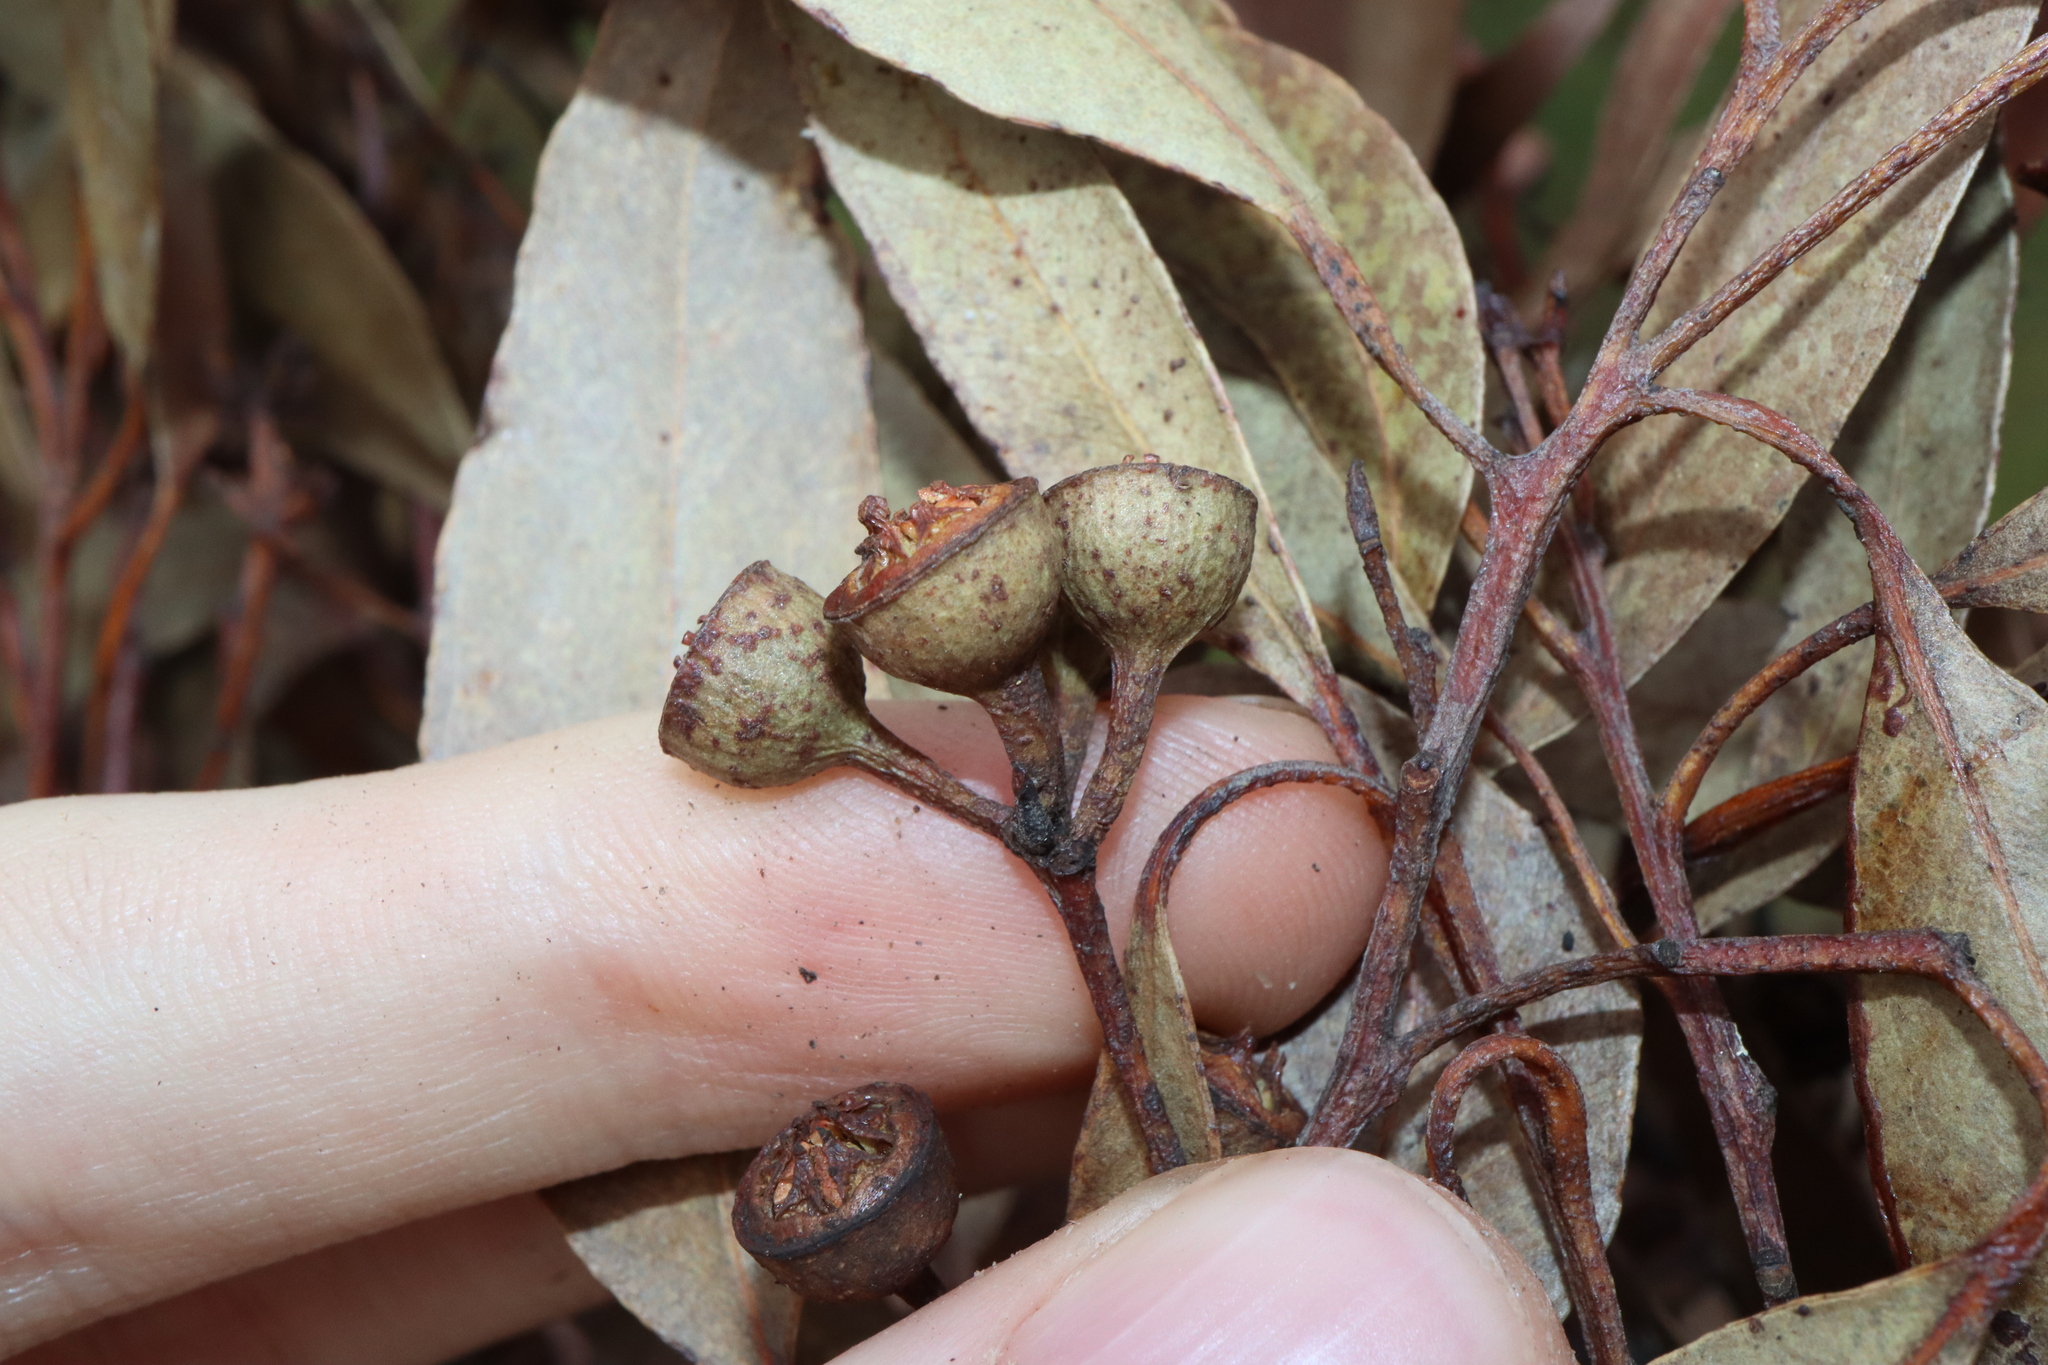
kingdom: Plantae
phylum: Tracheophyta
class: Magnoliopsida
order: Myrtales
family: Myrtaceae
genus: Eucalyptus
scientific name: Eucalyptus mediocris
